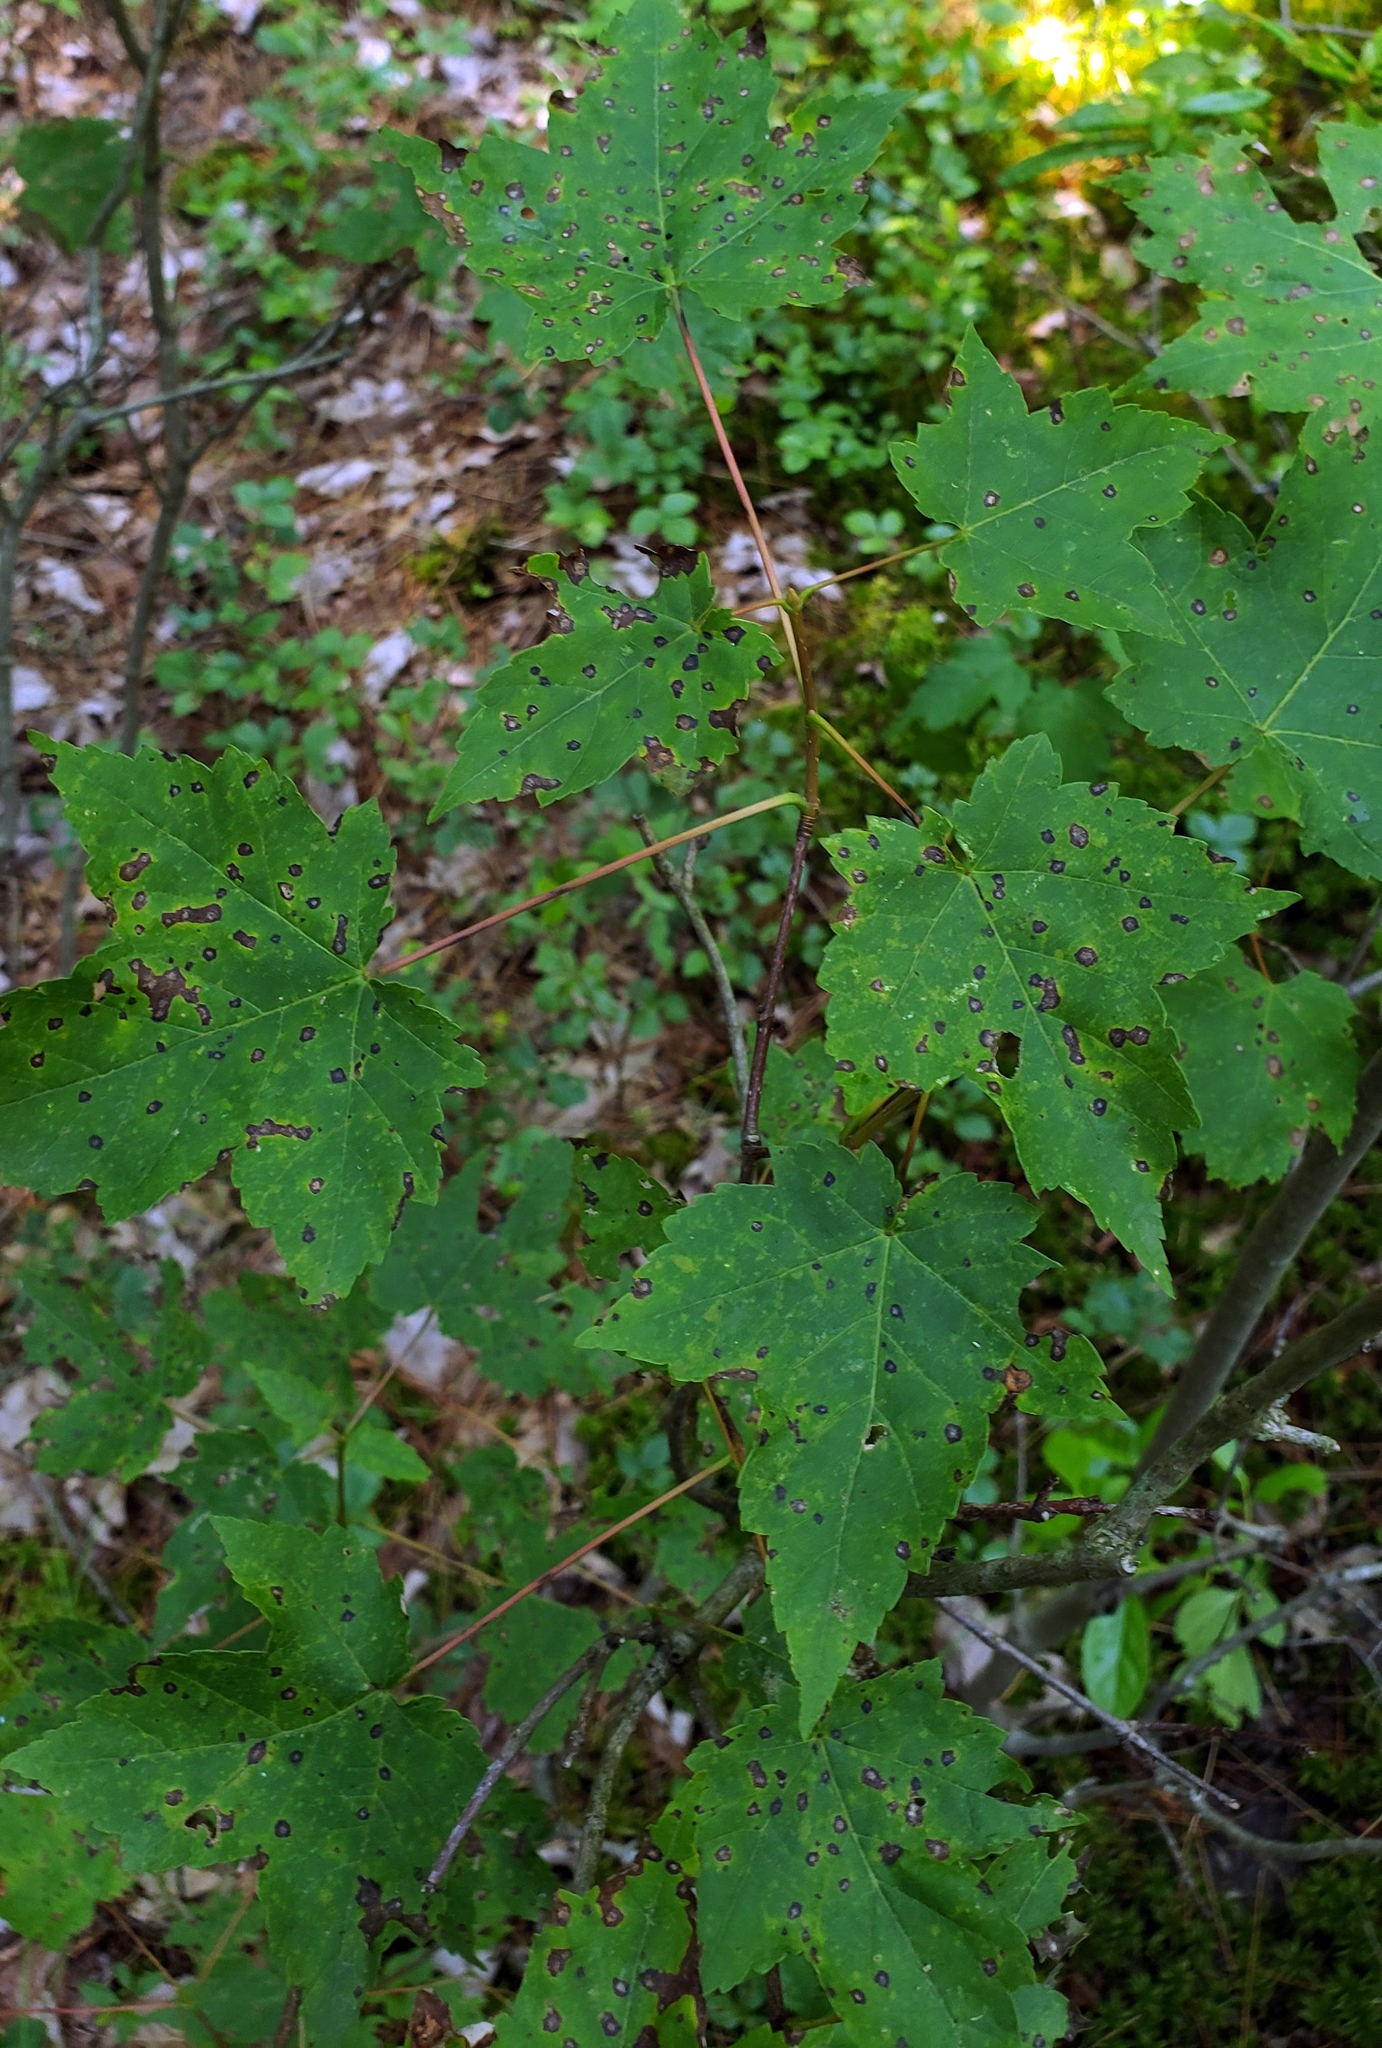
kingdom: Plantae
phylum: Tracheophyta
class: Magnoliopsida
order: Sapindales
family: Sapindaceae
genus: Acer
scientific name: Acer rubrum
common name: Red maple
